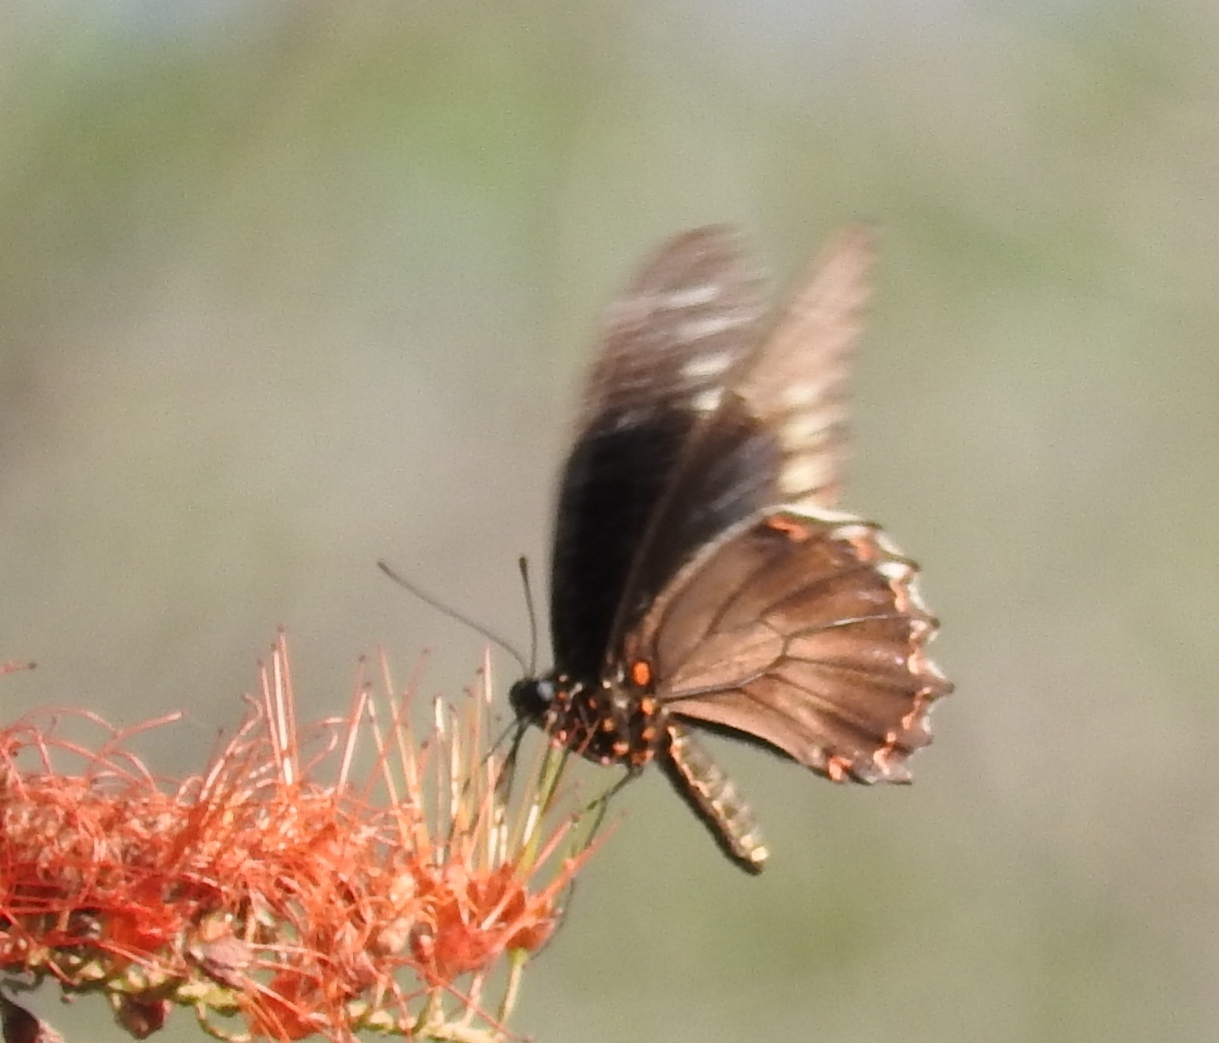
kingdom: Animalia
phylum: Arthropoda
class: Insecta
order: Lepidoptera
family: Papilionidae
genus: Battus
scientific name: Battus polydamas
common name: Polydamas swallowtail
